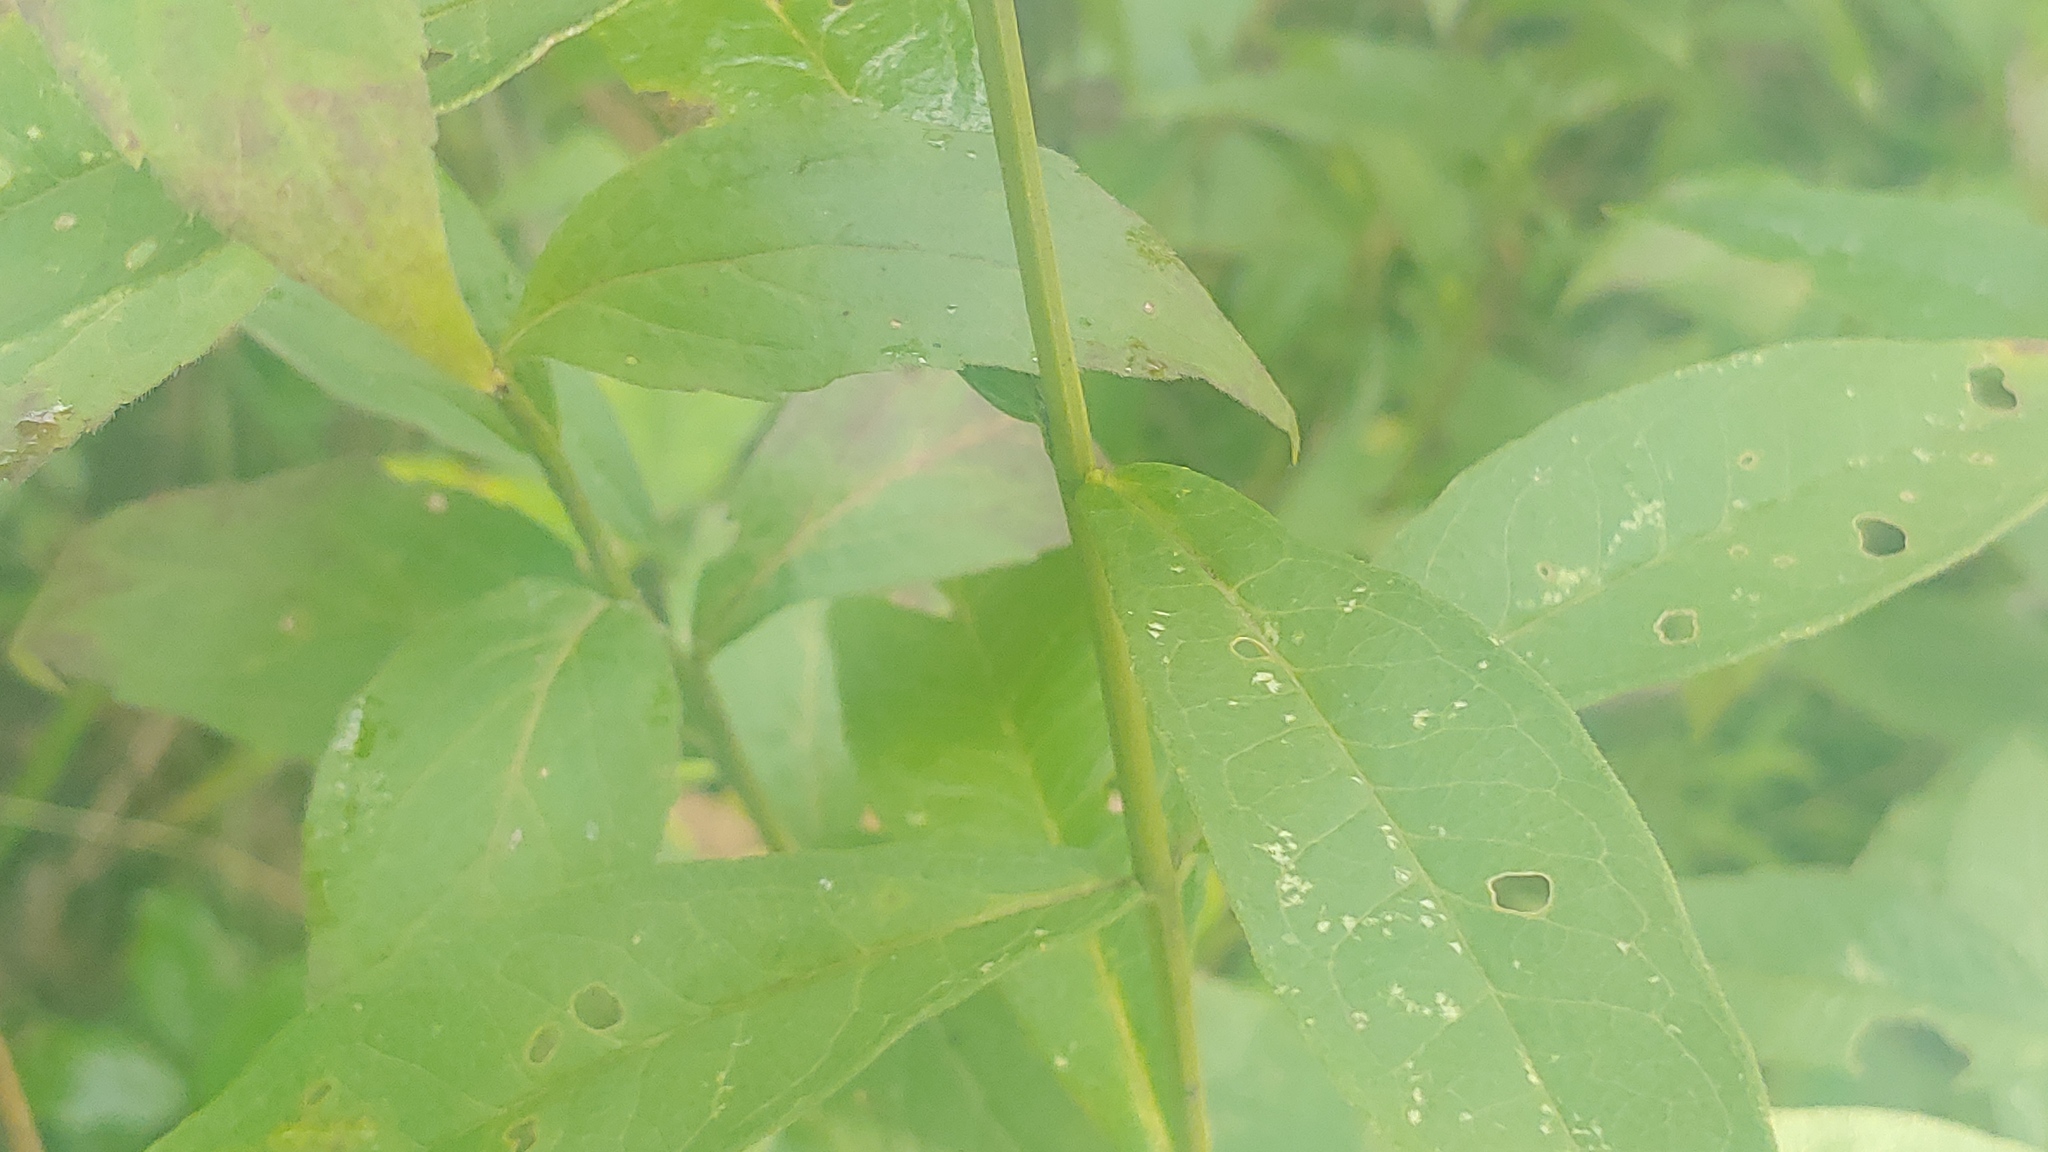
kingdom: Plantae
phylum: Tracheophyta
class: Magnoliopsida
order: Ericales
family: Polemoniaceae
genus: Phlox
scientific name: Phlox paniculata
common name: Fall phlox
